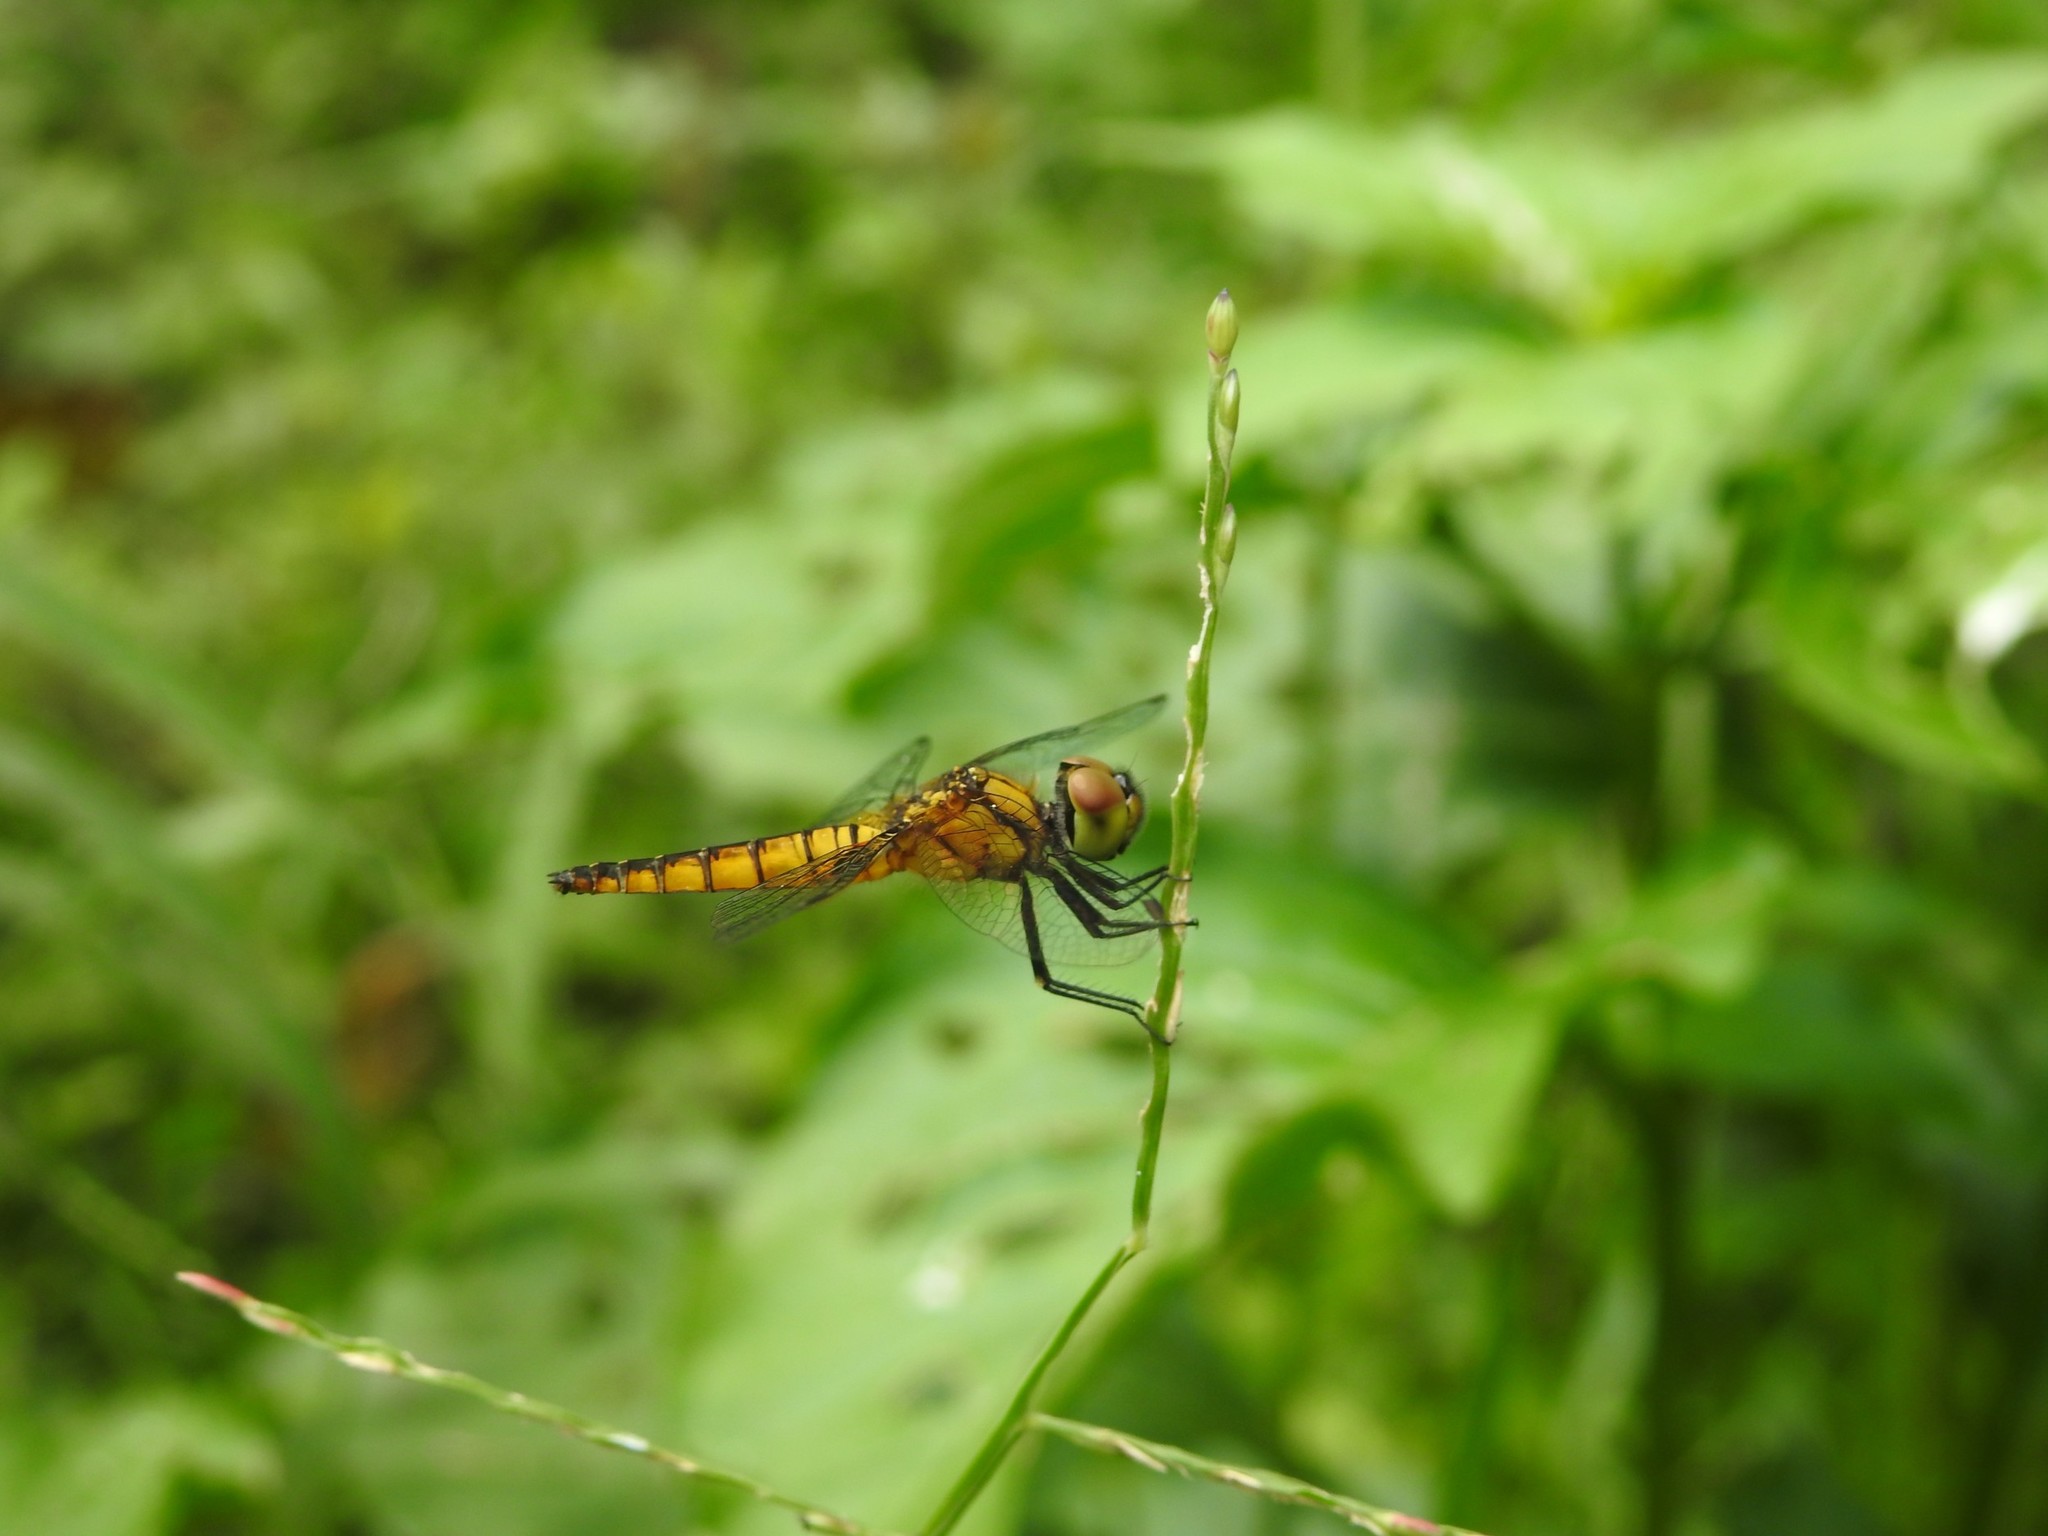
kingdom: Animalia
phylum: Arthropoda
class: Insecta
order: Odonata
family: Libellulidae
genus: Aethriamanta
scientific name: Aethriamanta brevipennis
